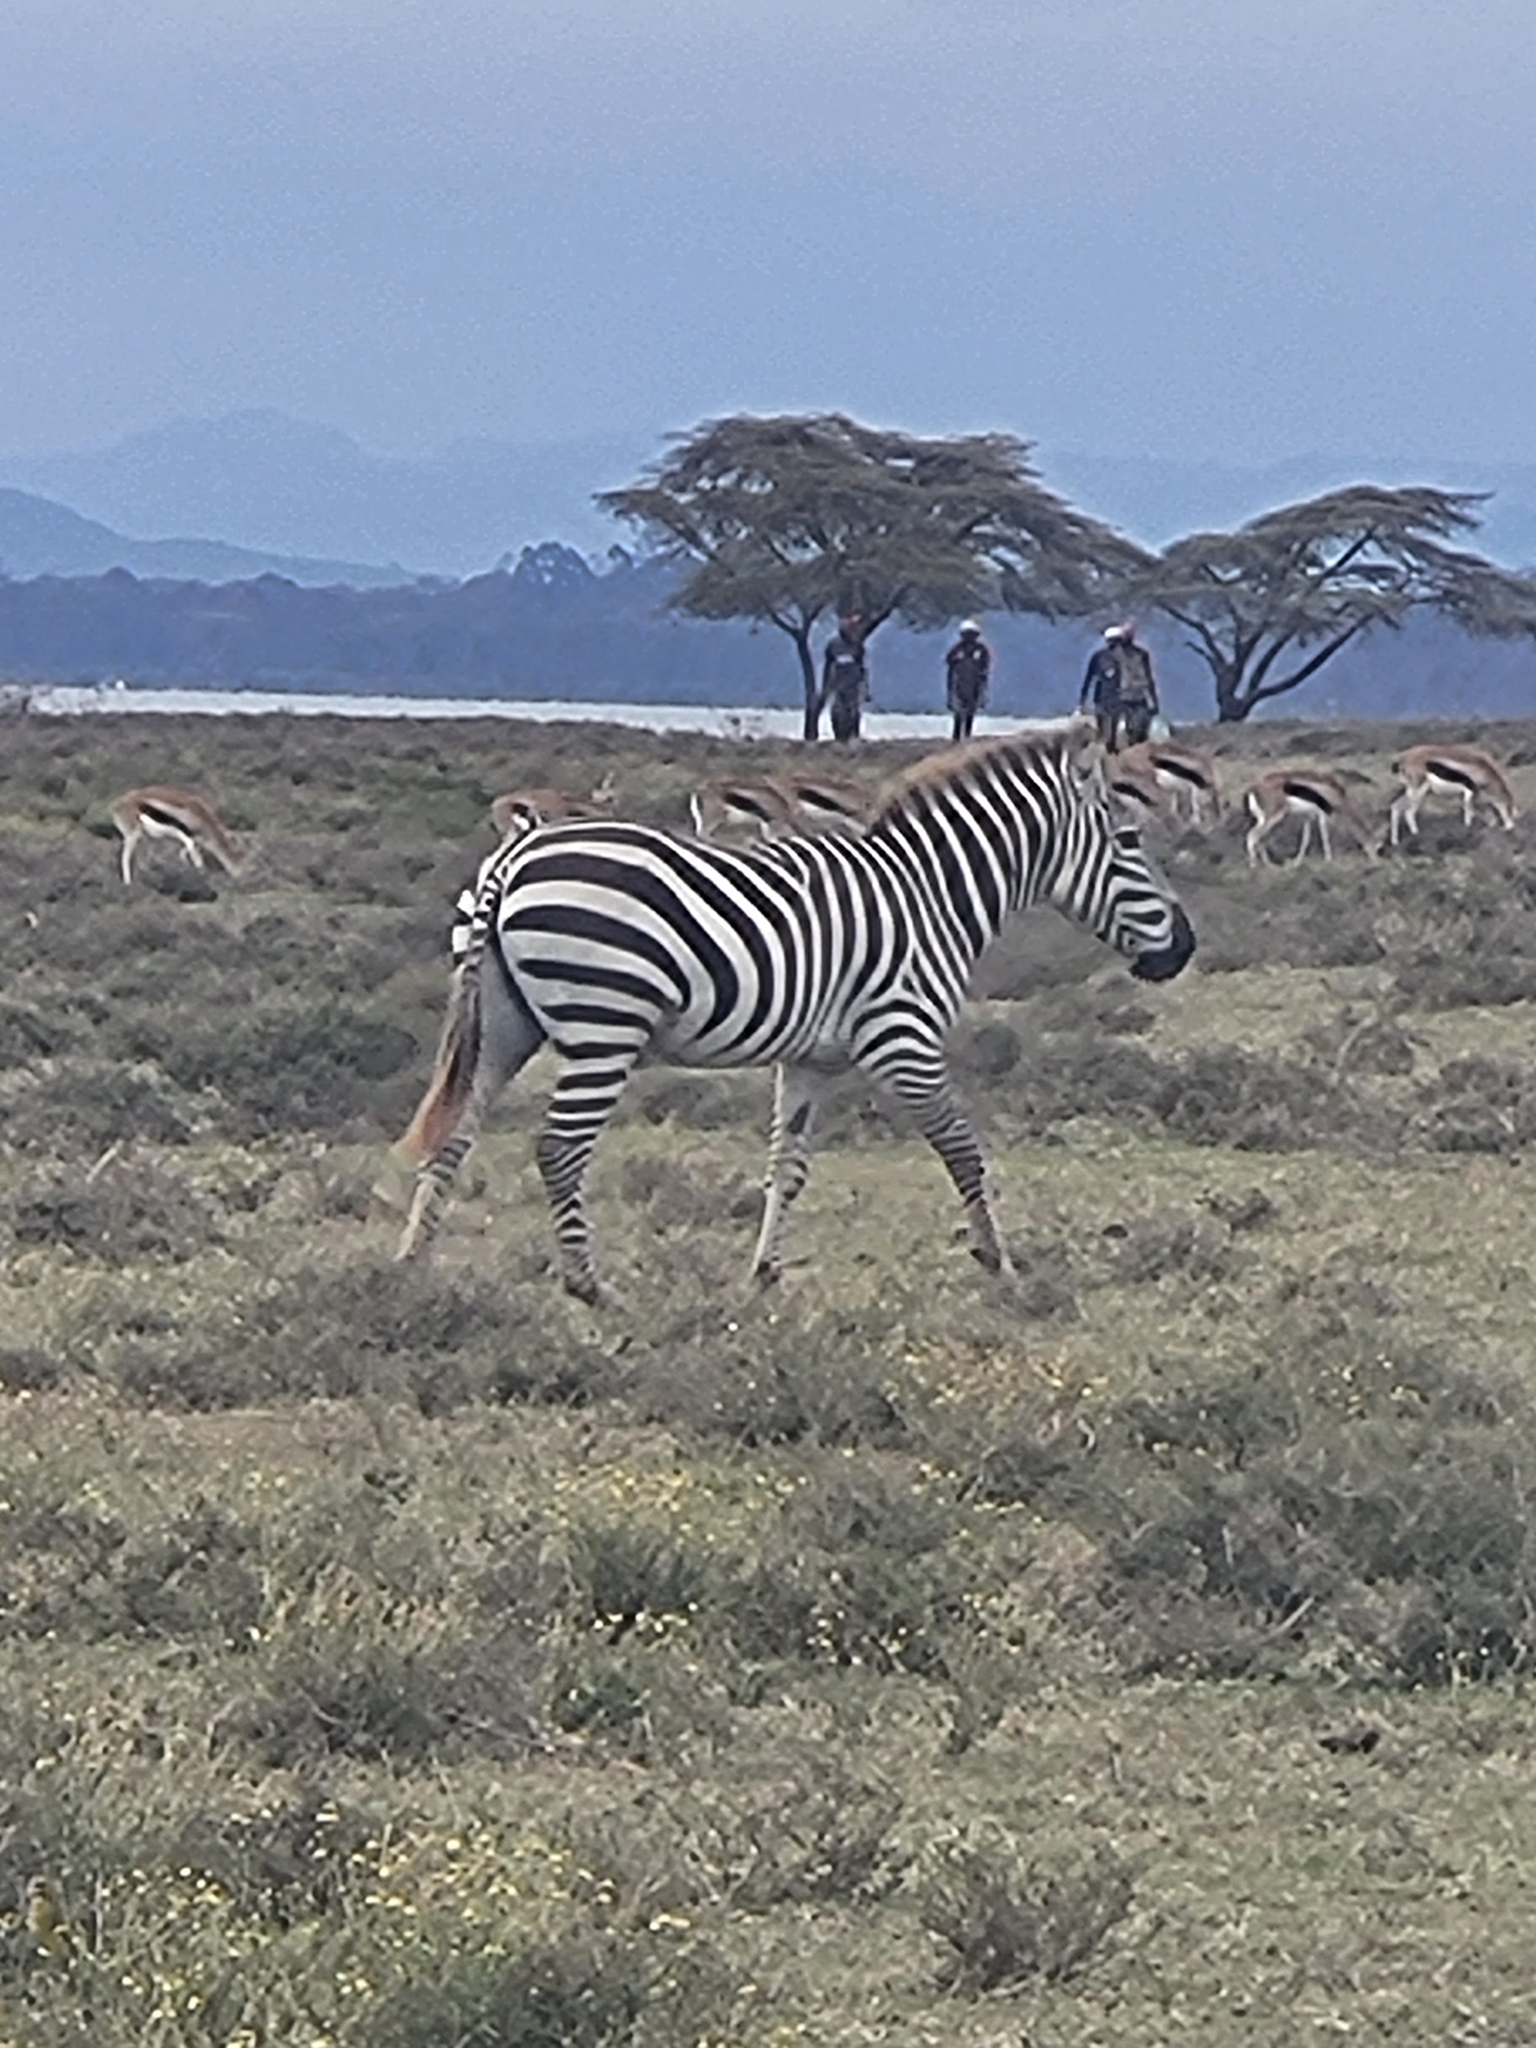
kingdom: Animalia
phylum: Chordata
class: Mammalia
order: Perissodactyla
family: Equidae
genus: Equus
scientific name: Equus quagga
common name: Plains zebra
